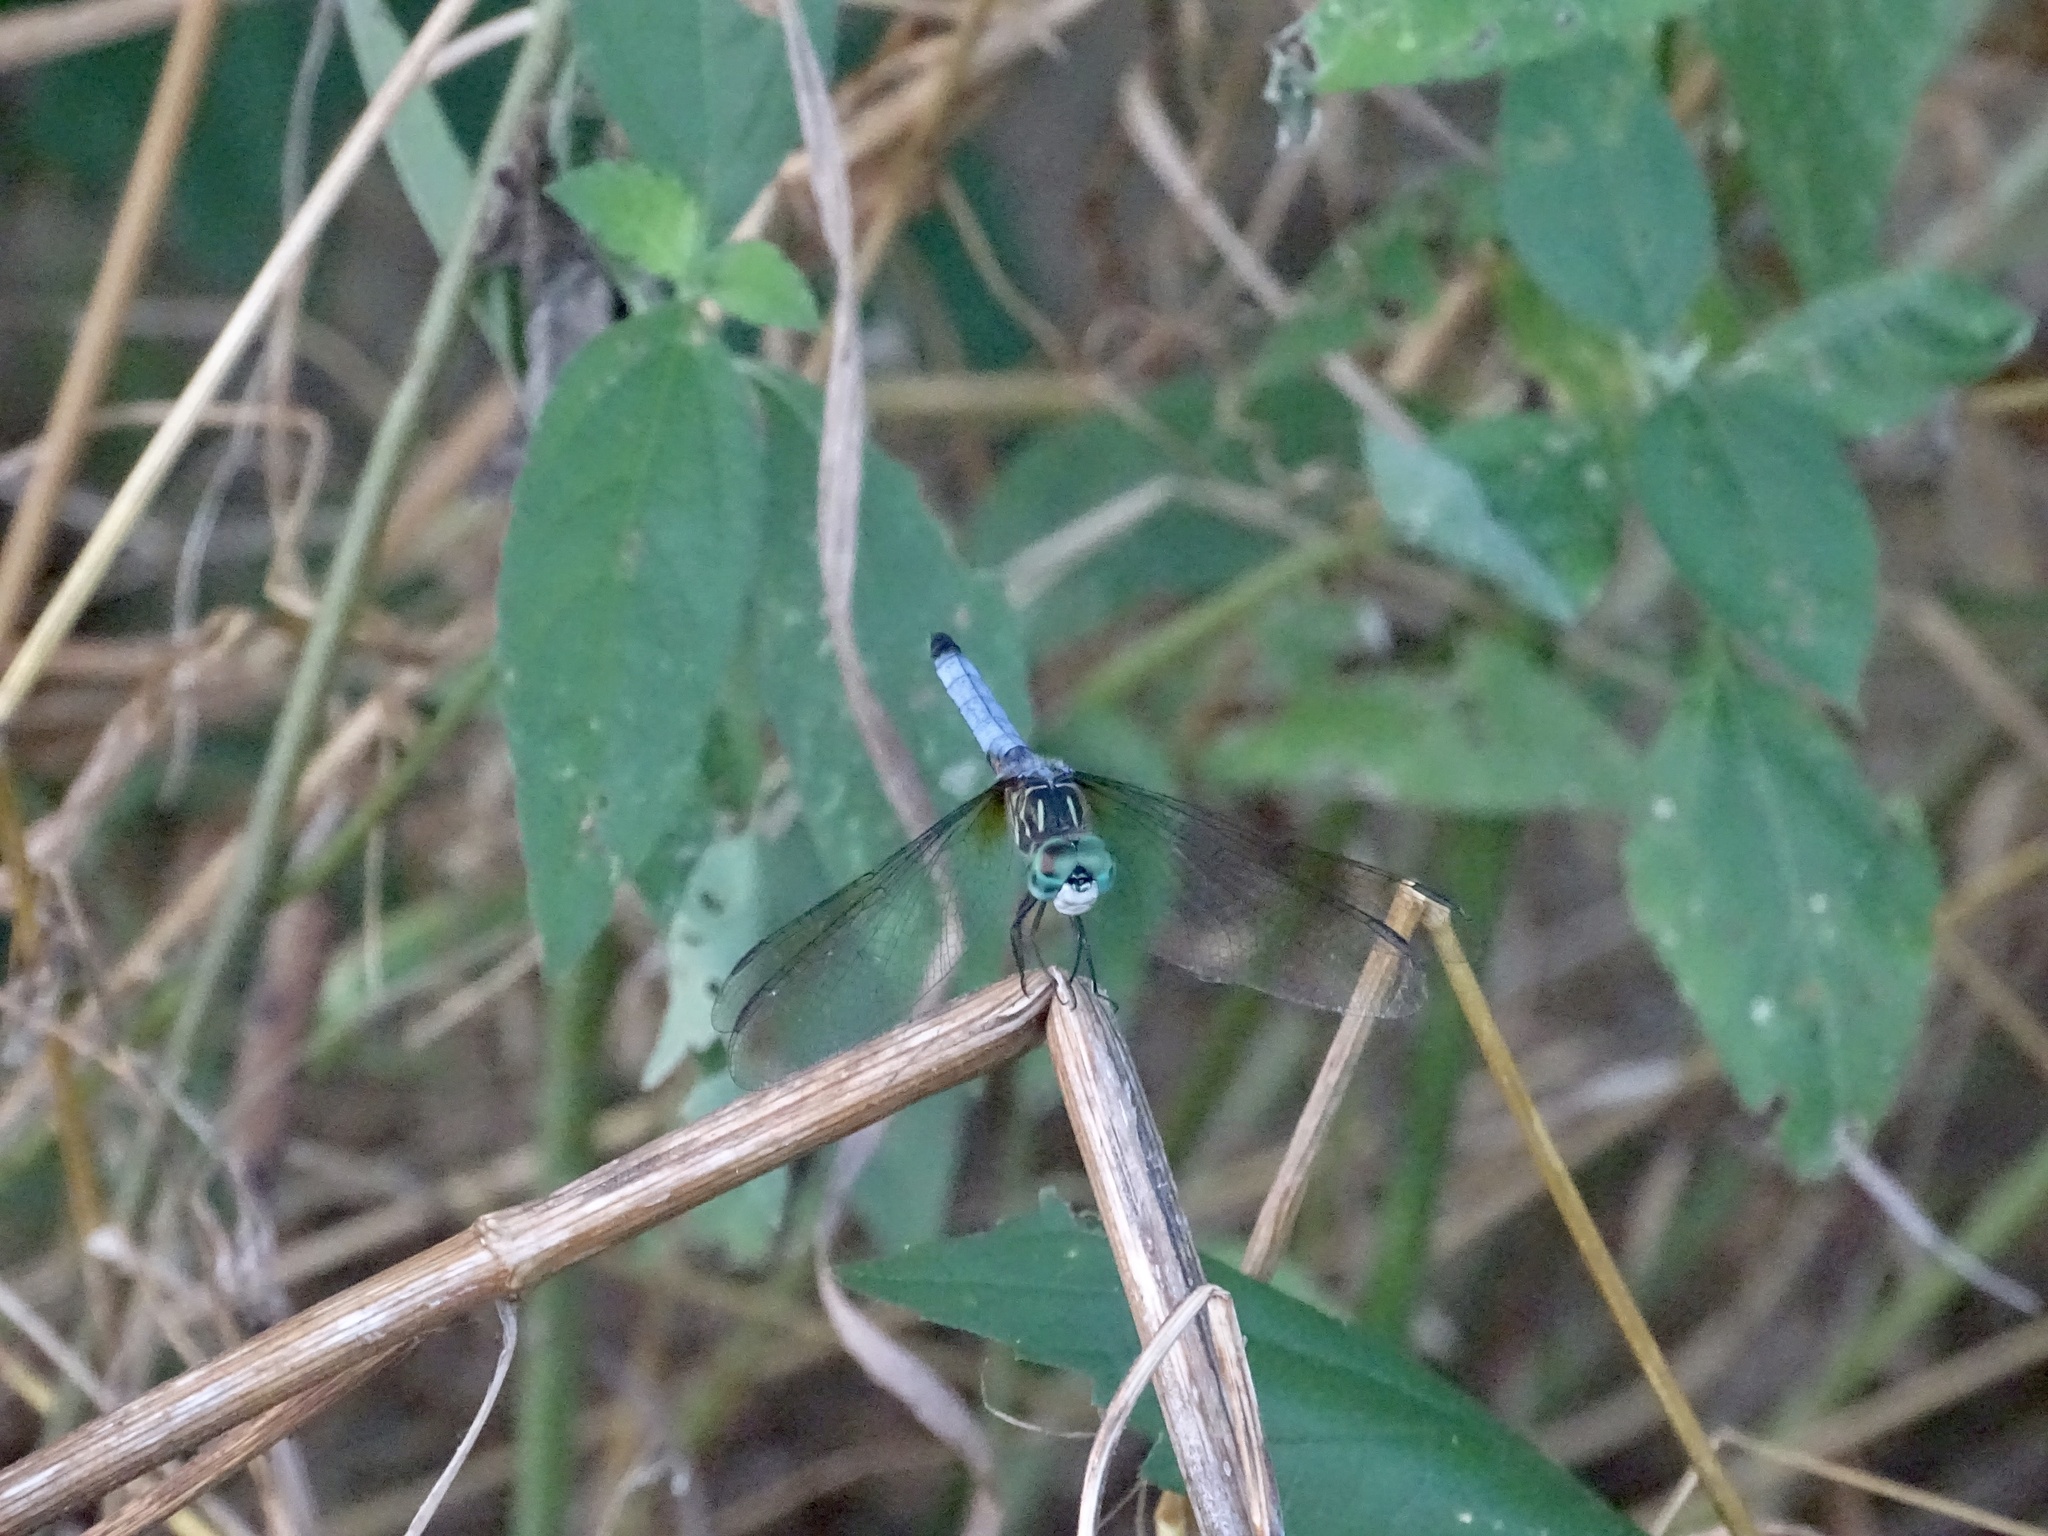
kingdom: Animalia
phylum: Arthropoda
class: Insecta
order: Odonata
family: Libellulidae
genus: Pachydiplax
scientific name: Pachydiplax longipennis
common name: Blue dasher
